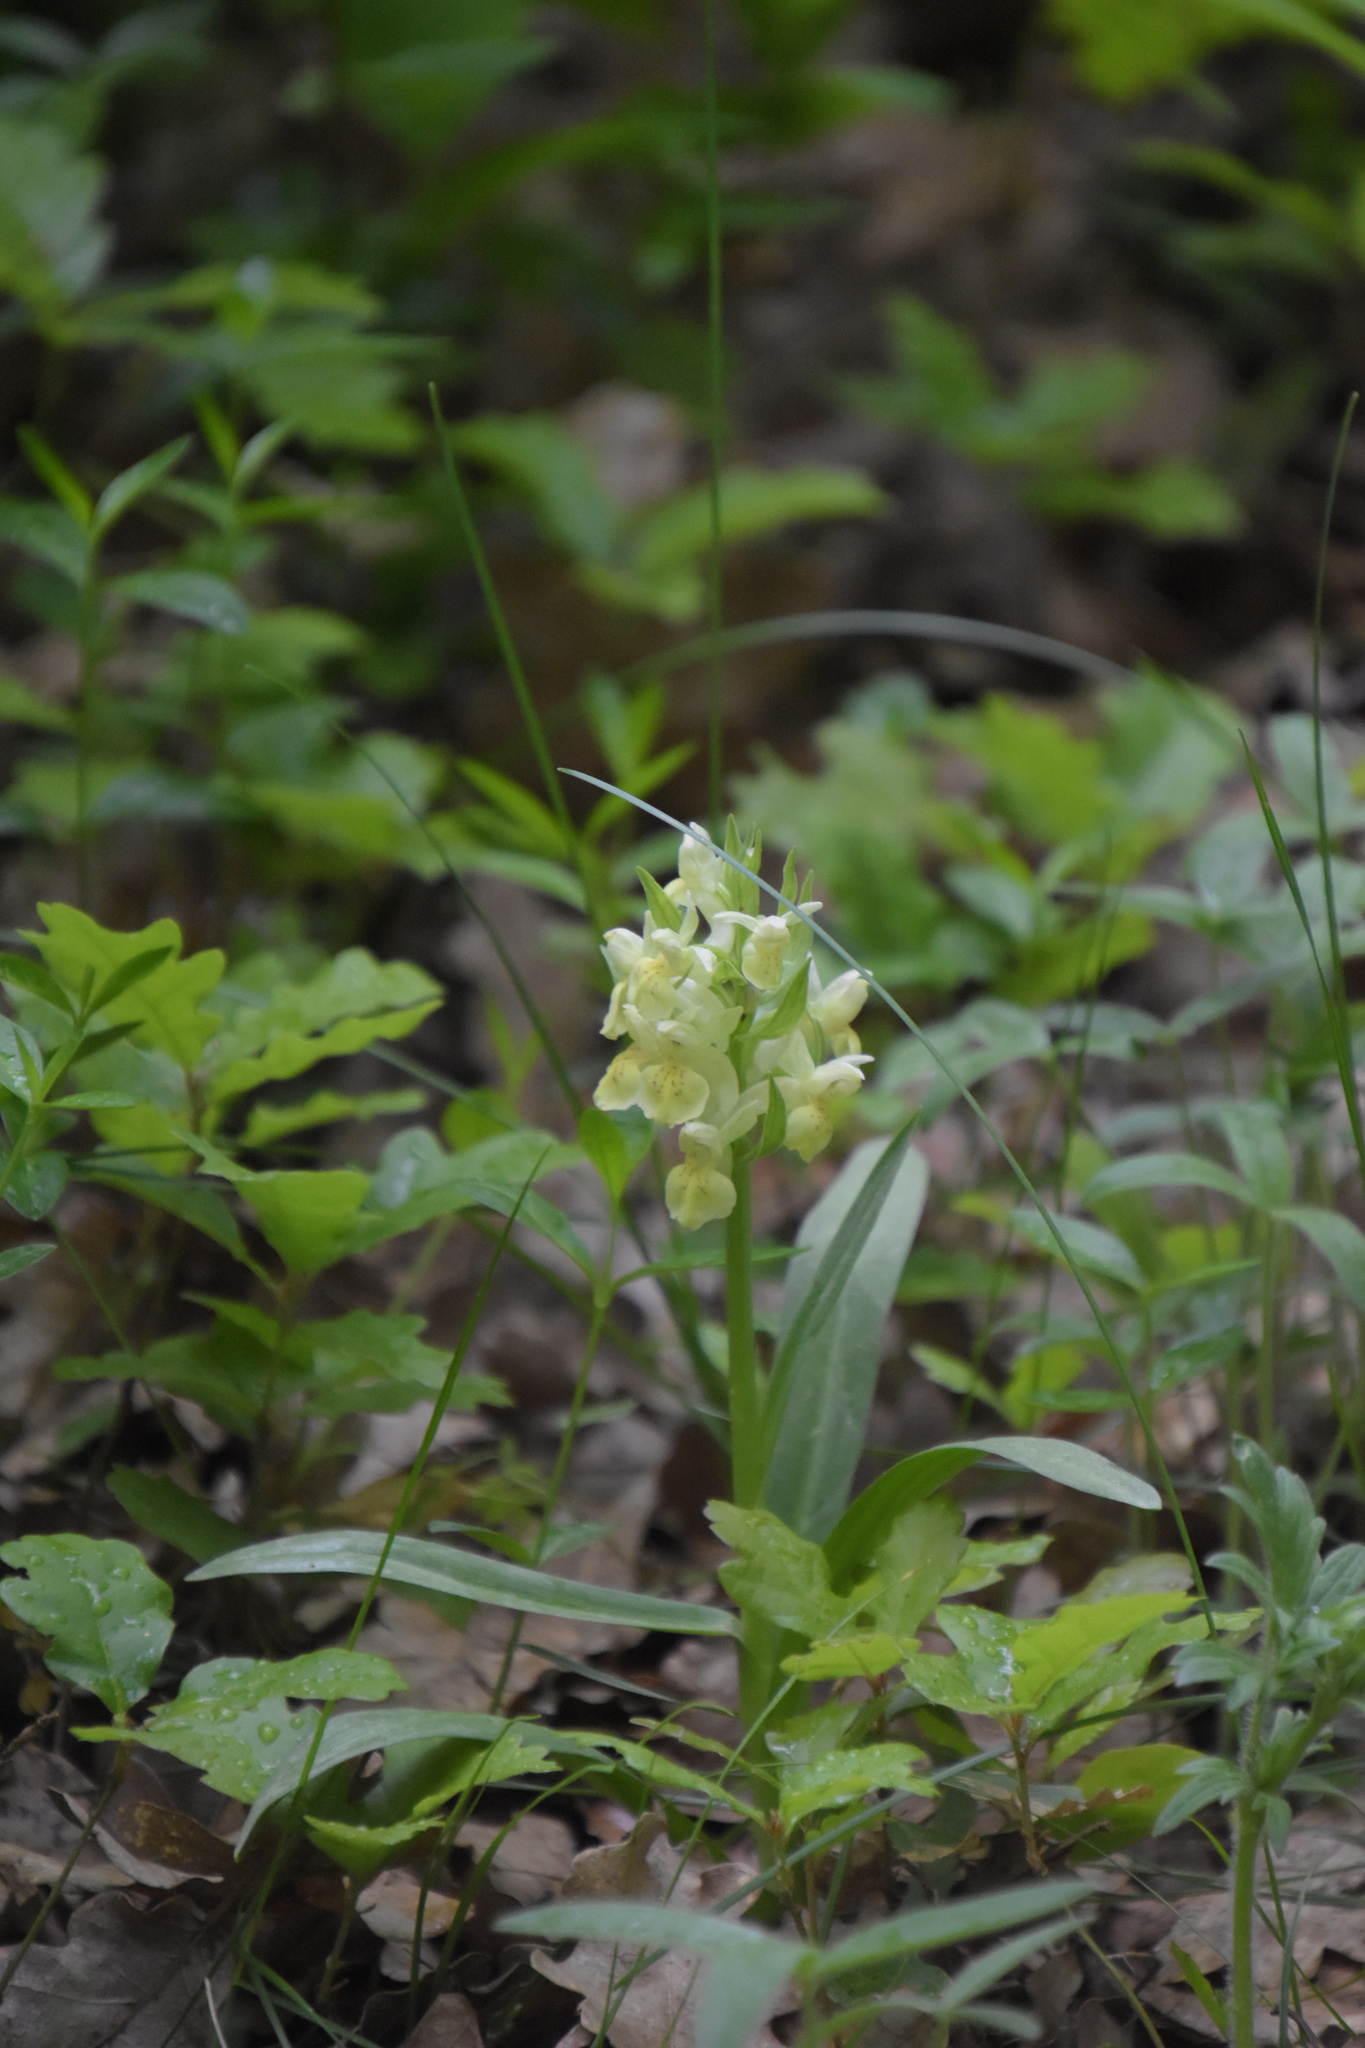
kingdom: Plantae
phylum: Tracheophyta
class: Liliopsida
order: Asparagales
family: Orchidaceae
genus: Dactylorhiza
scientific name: Dactylorhiza sambucina
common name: Elder-flowered orchid
